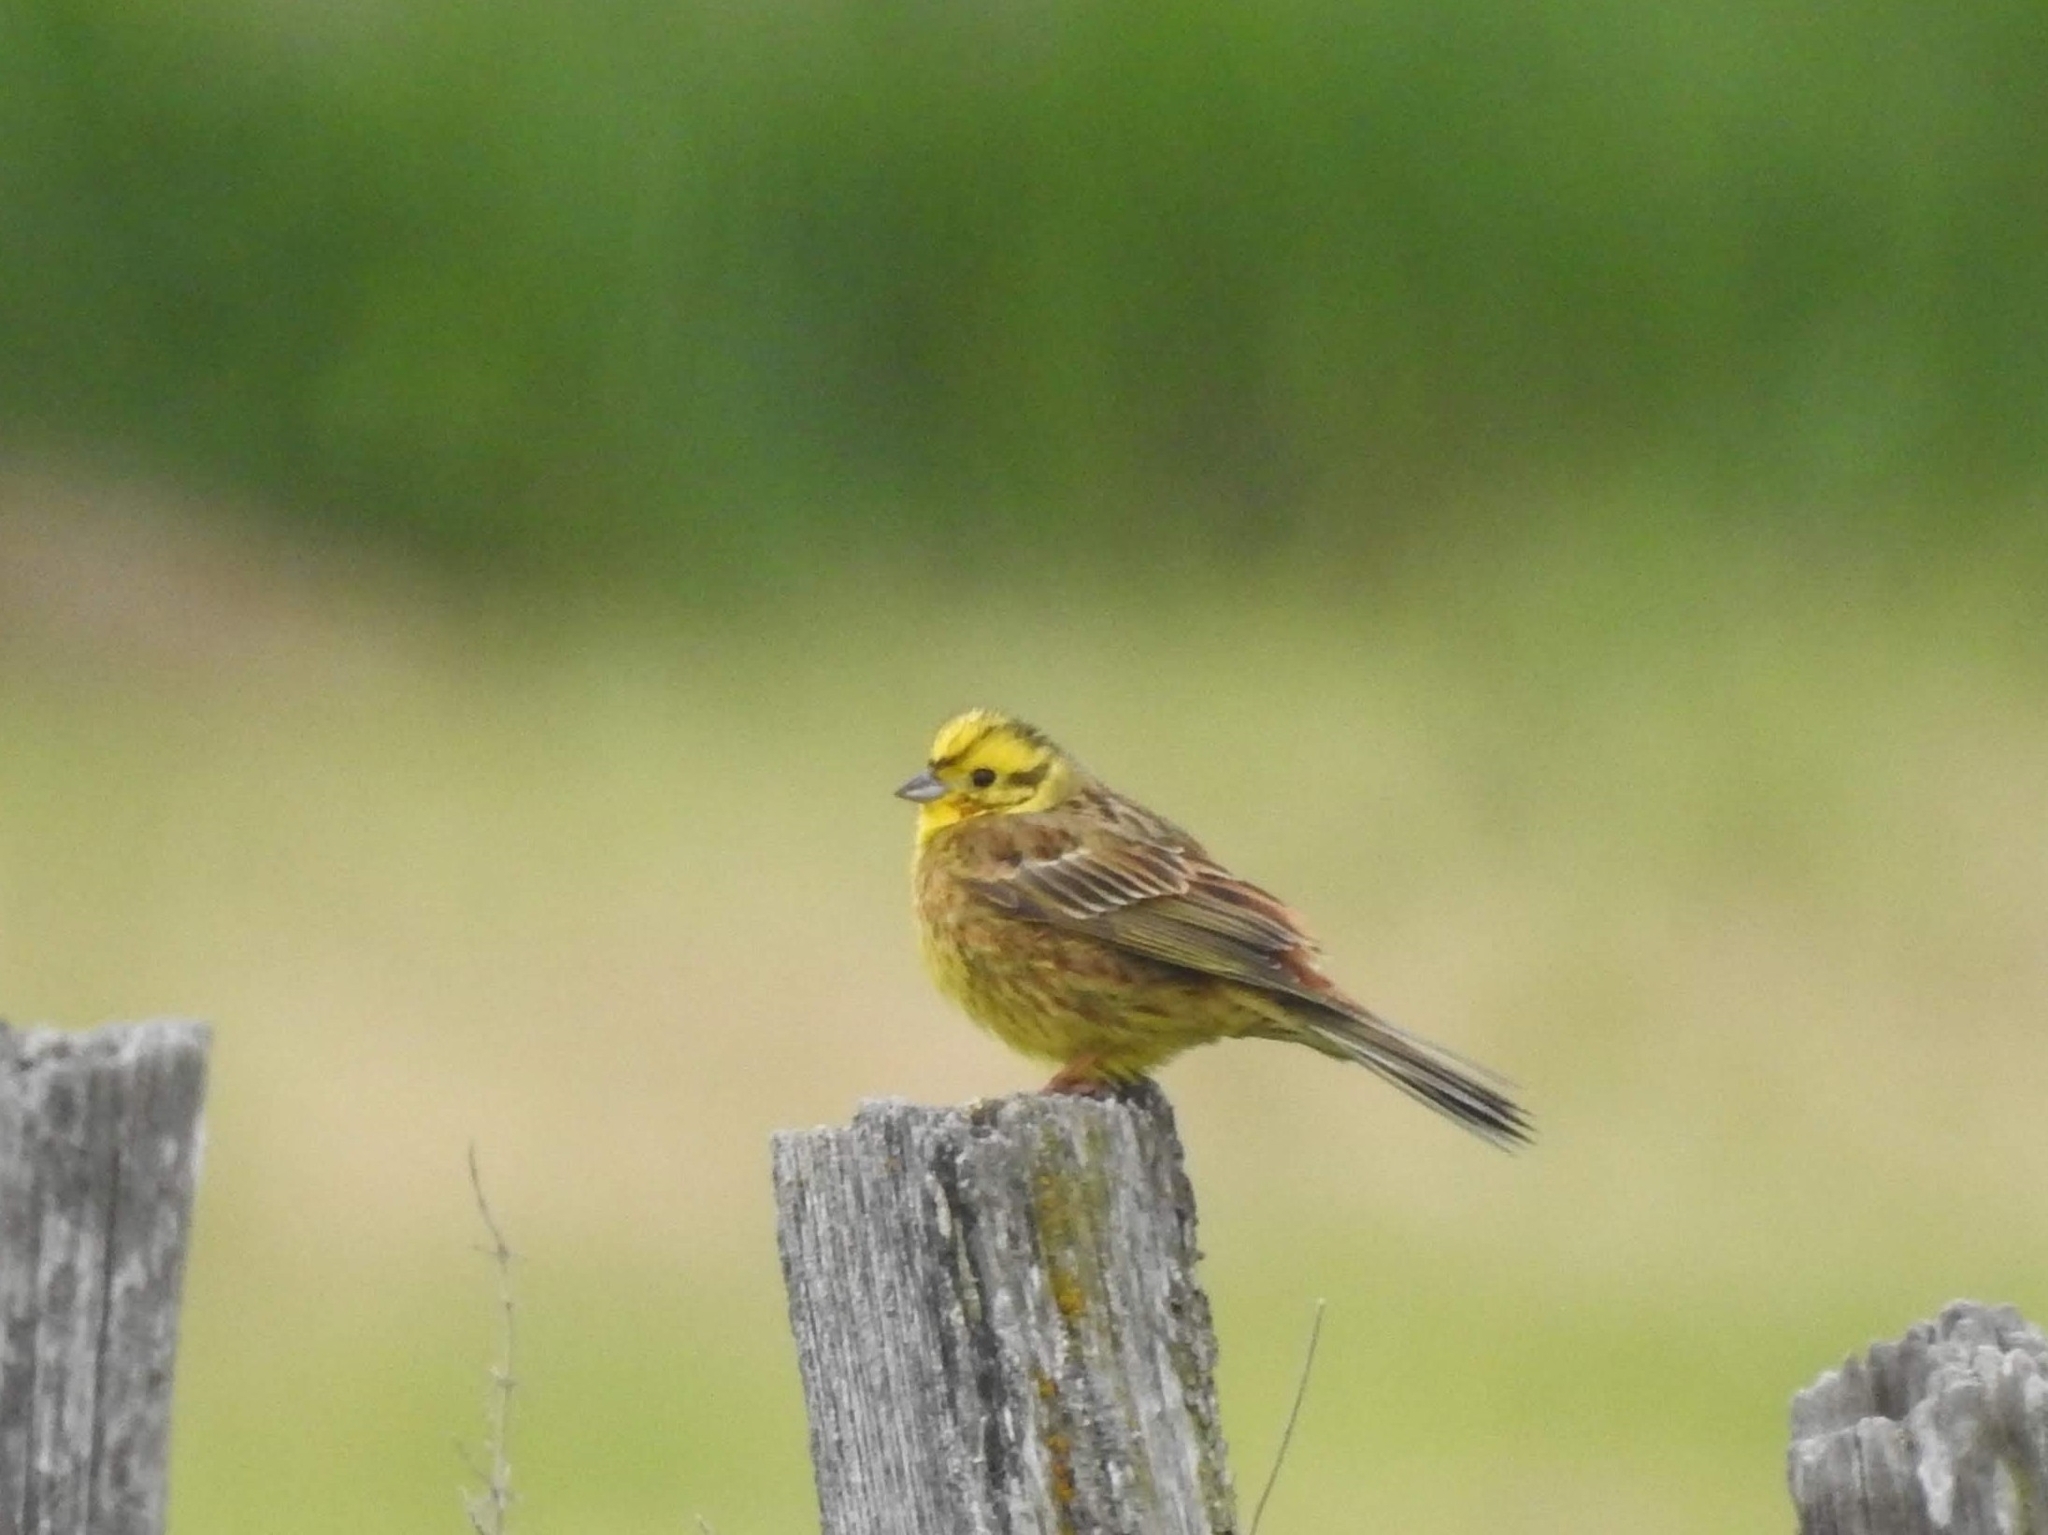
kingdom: Animalia
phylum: Chordata
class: Aves
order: Passeriformes
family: Emberizidae
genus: Emberiza
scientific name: Emberiza citrinella
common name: Yellowhammer
